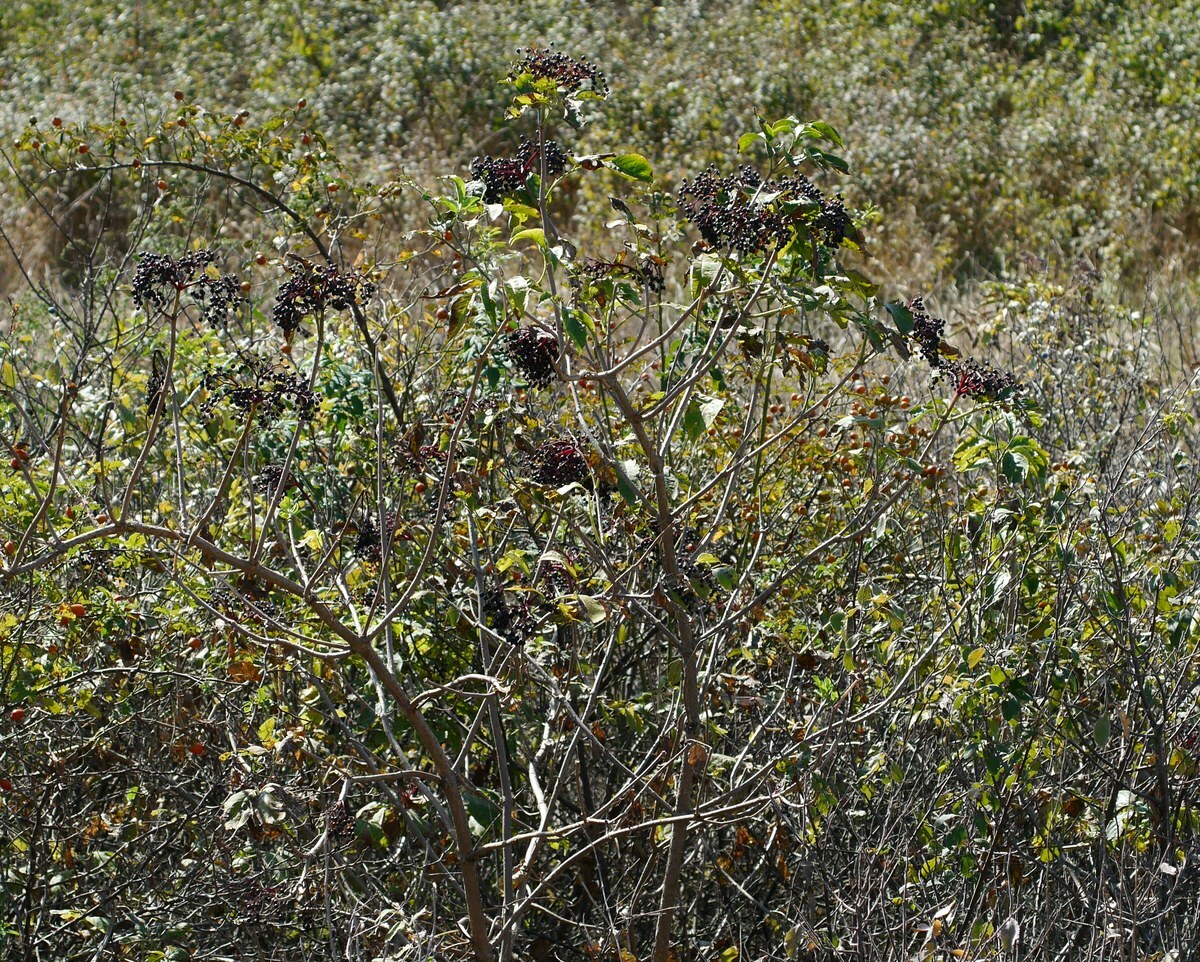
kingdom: Plantae
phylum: Tracheophyta
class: Magnoliopsida
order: Dipsacales
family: Viburnaceae
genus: Sambucus
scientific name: Sambucus nigra
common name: Elder
